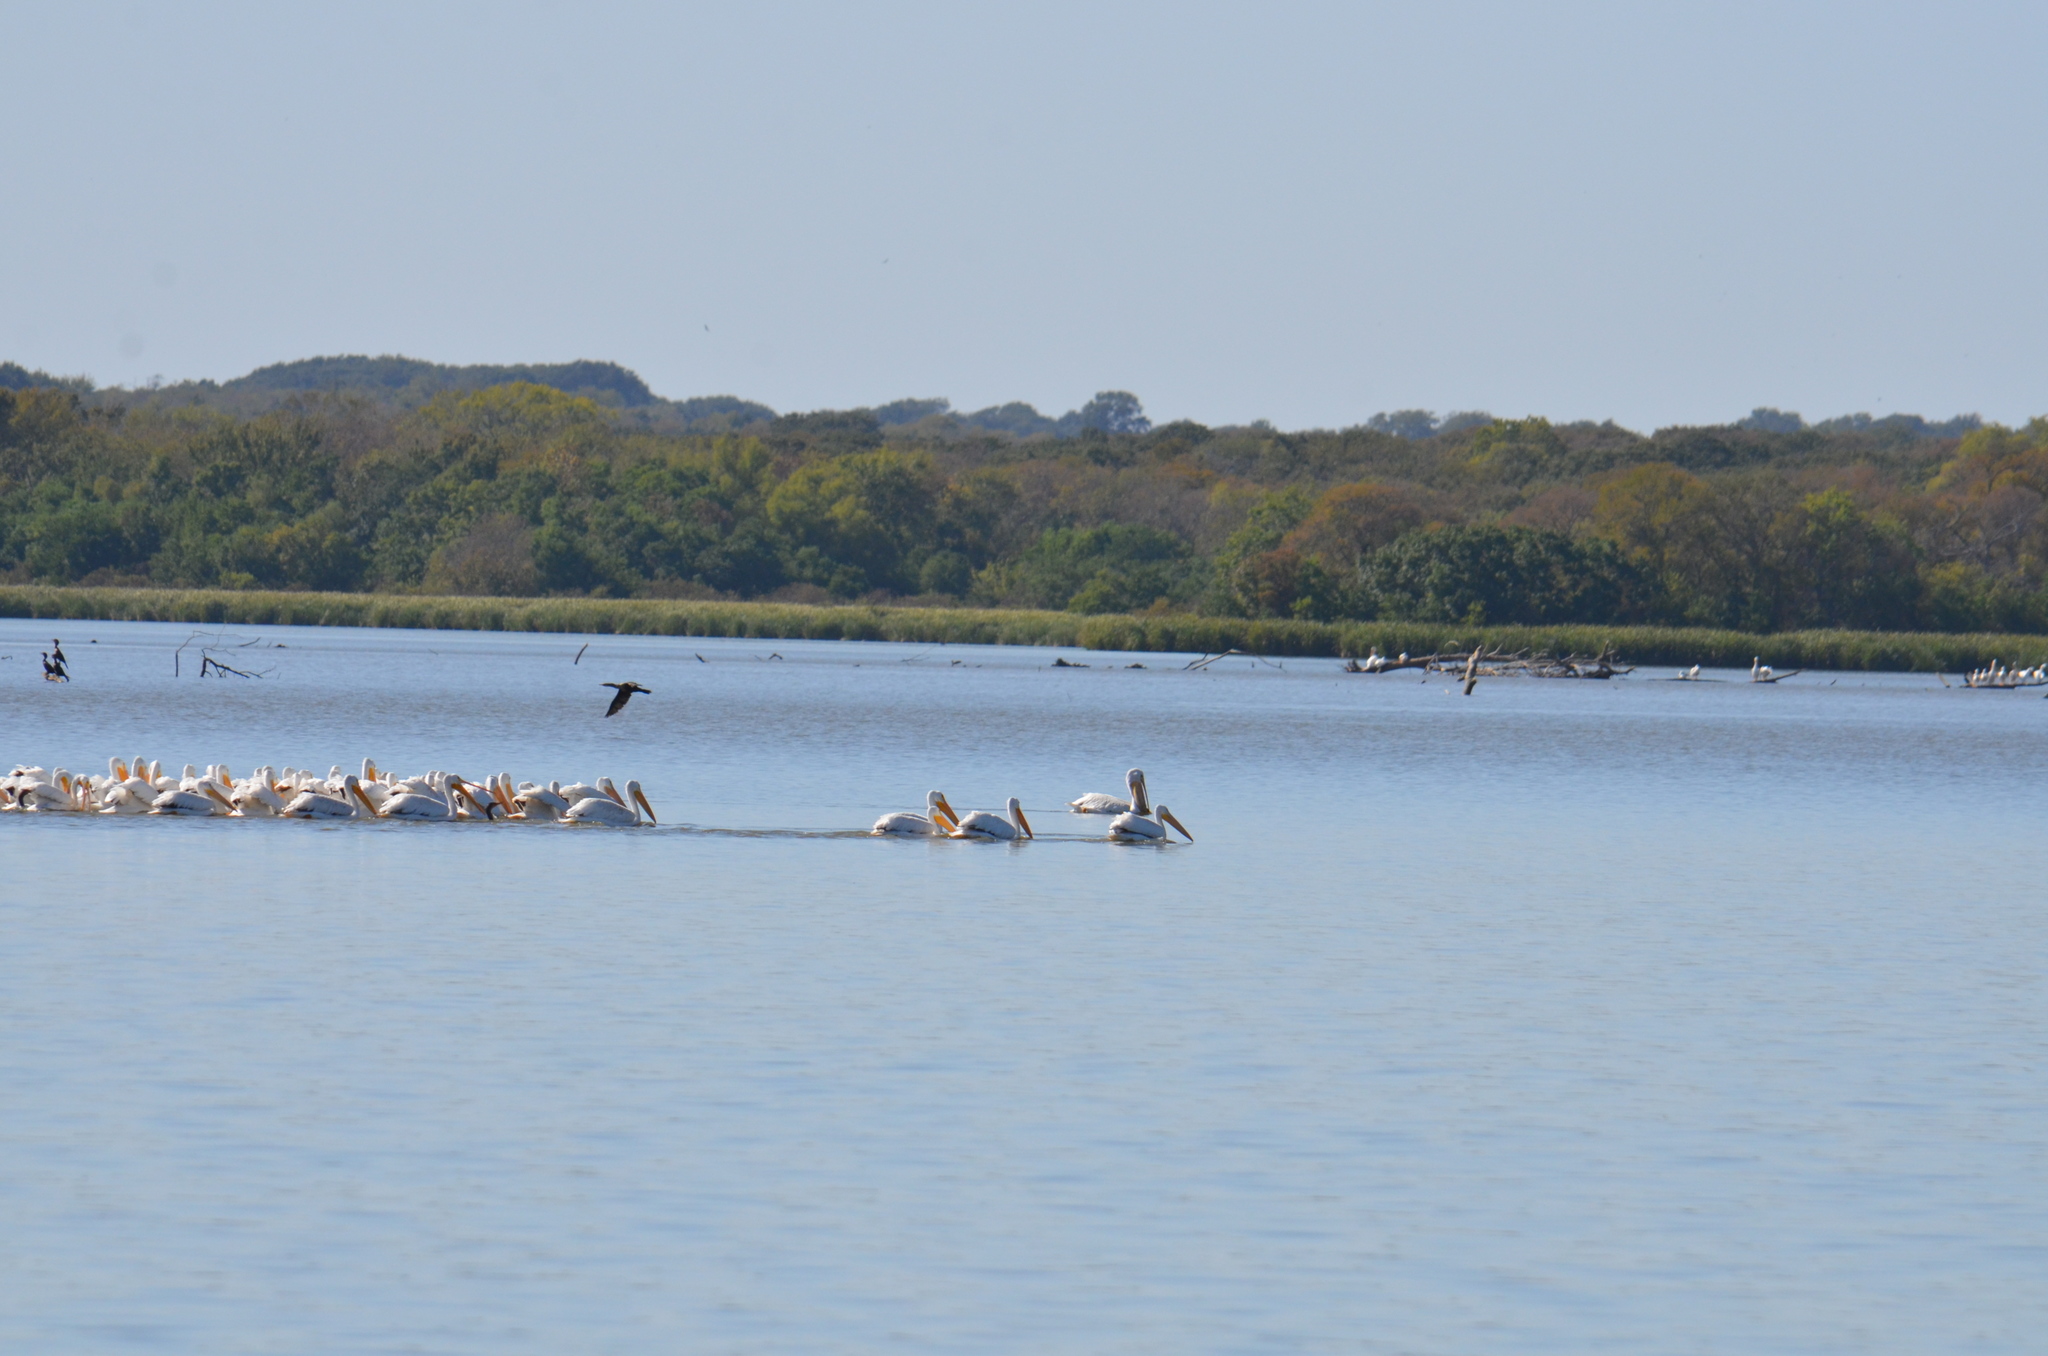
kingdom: Animalia
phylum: Chordata
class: Aves
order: Pelecaniformes
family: Pelecanidae
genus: Pelecanus
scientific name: Pelecanus erythrorhynchos
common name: American white pelican
